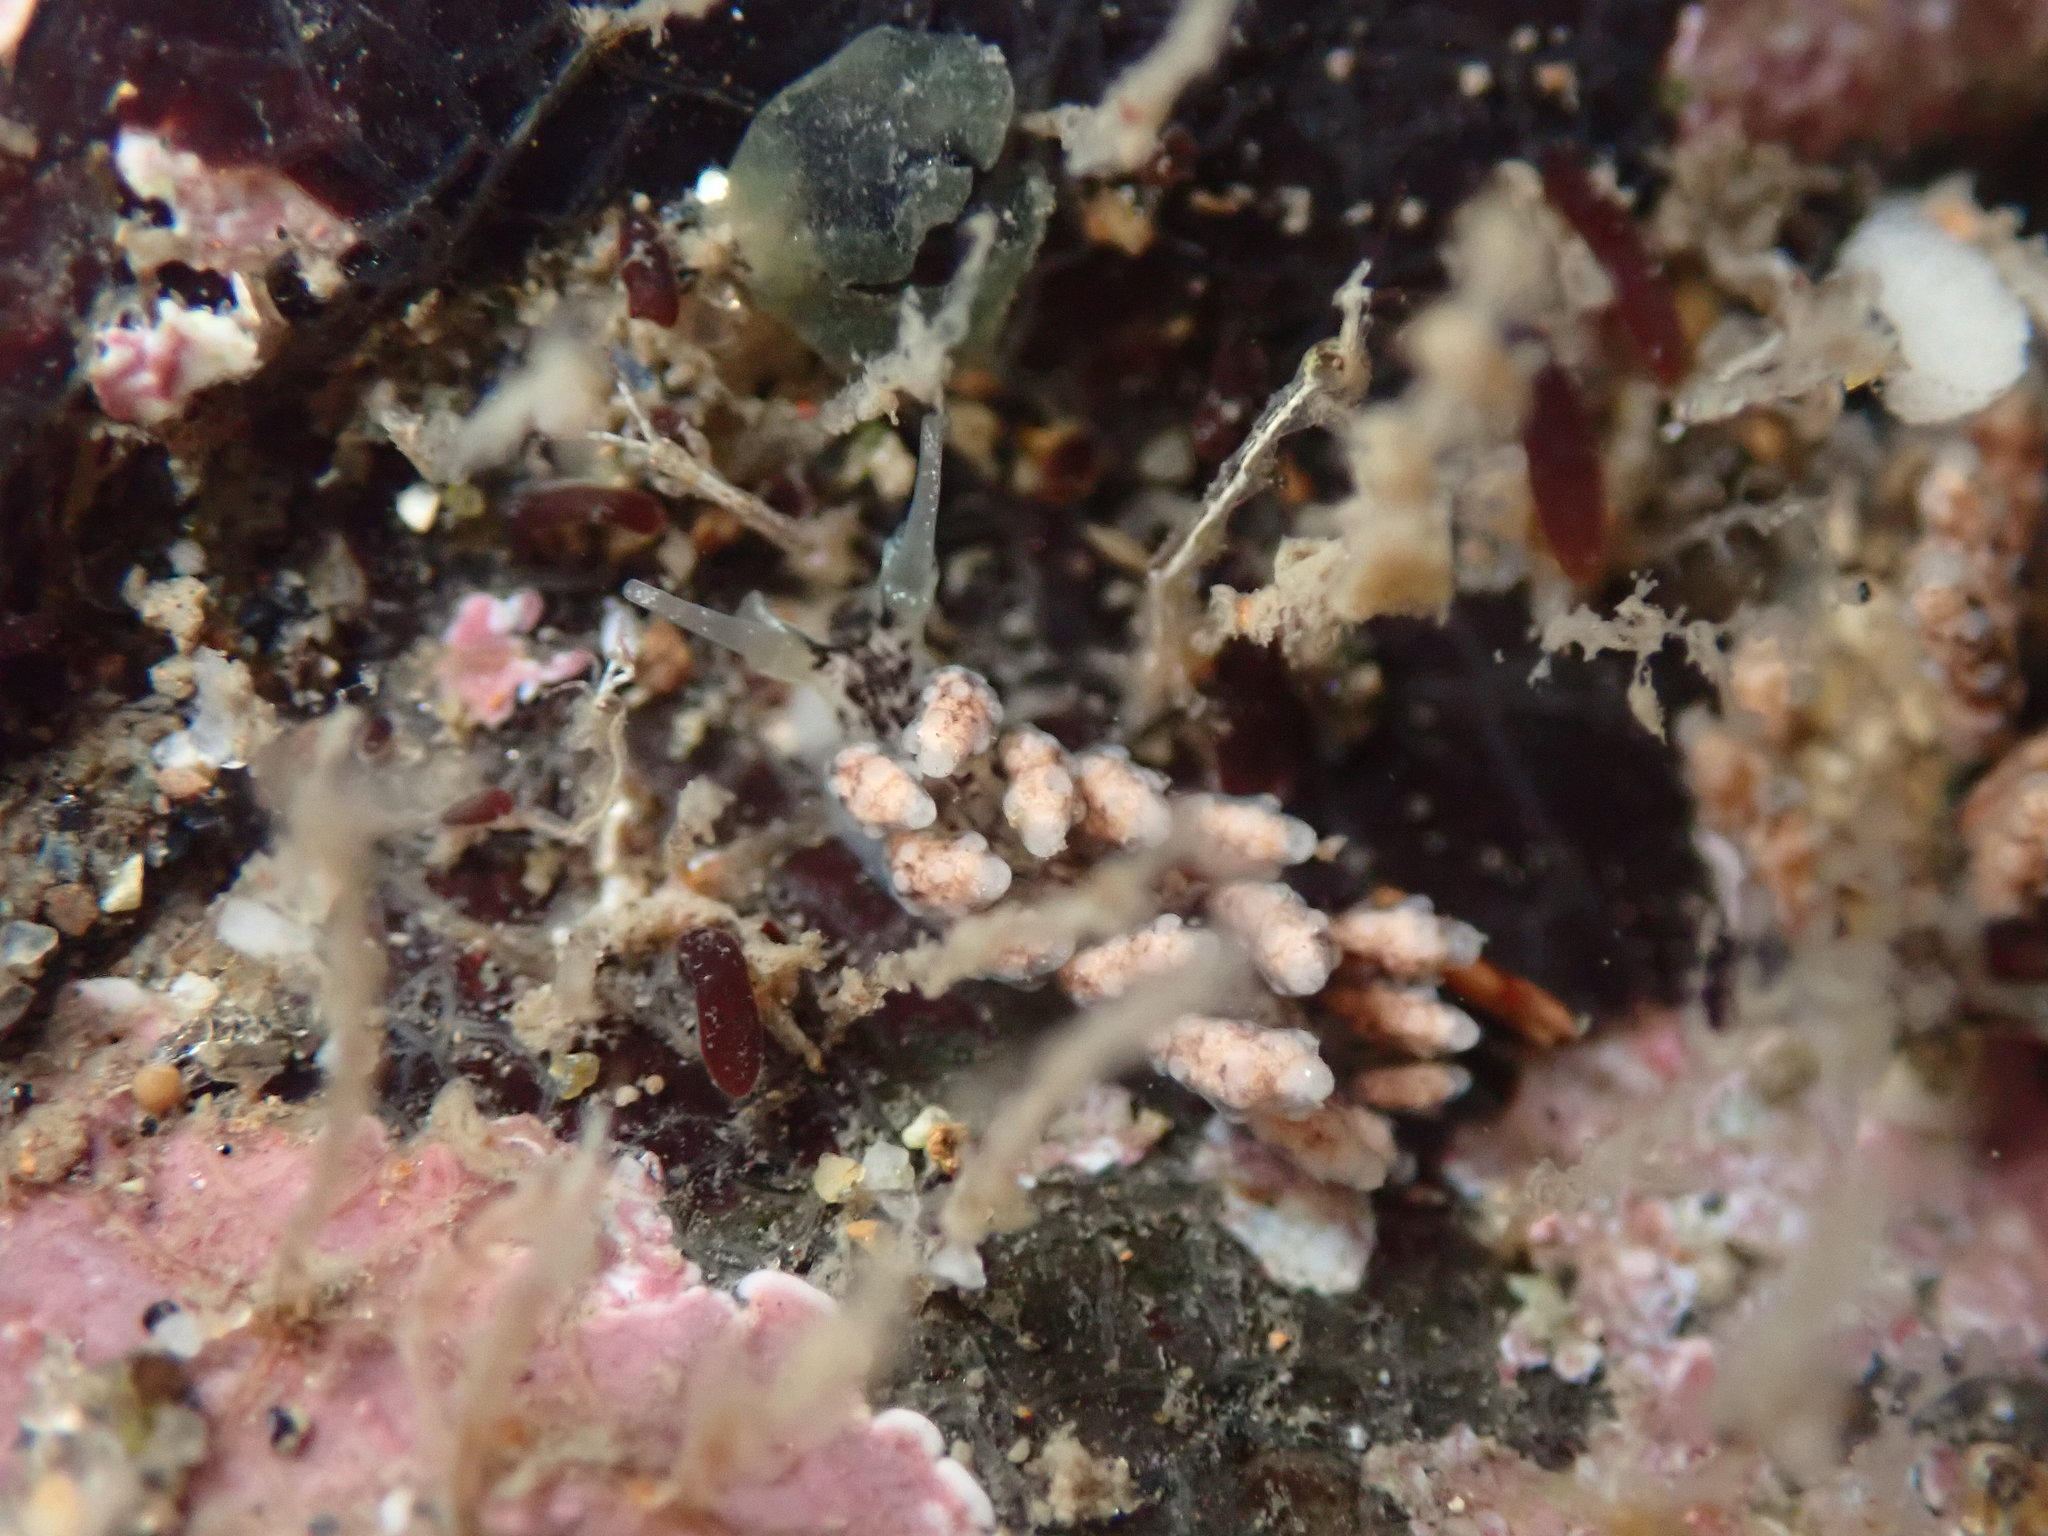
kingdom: Animalia
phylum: Mollusca
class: Gastropoda
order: Nudibranchia
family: Dotidae
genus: Doto
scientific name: Doto kya
